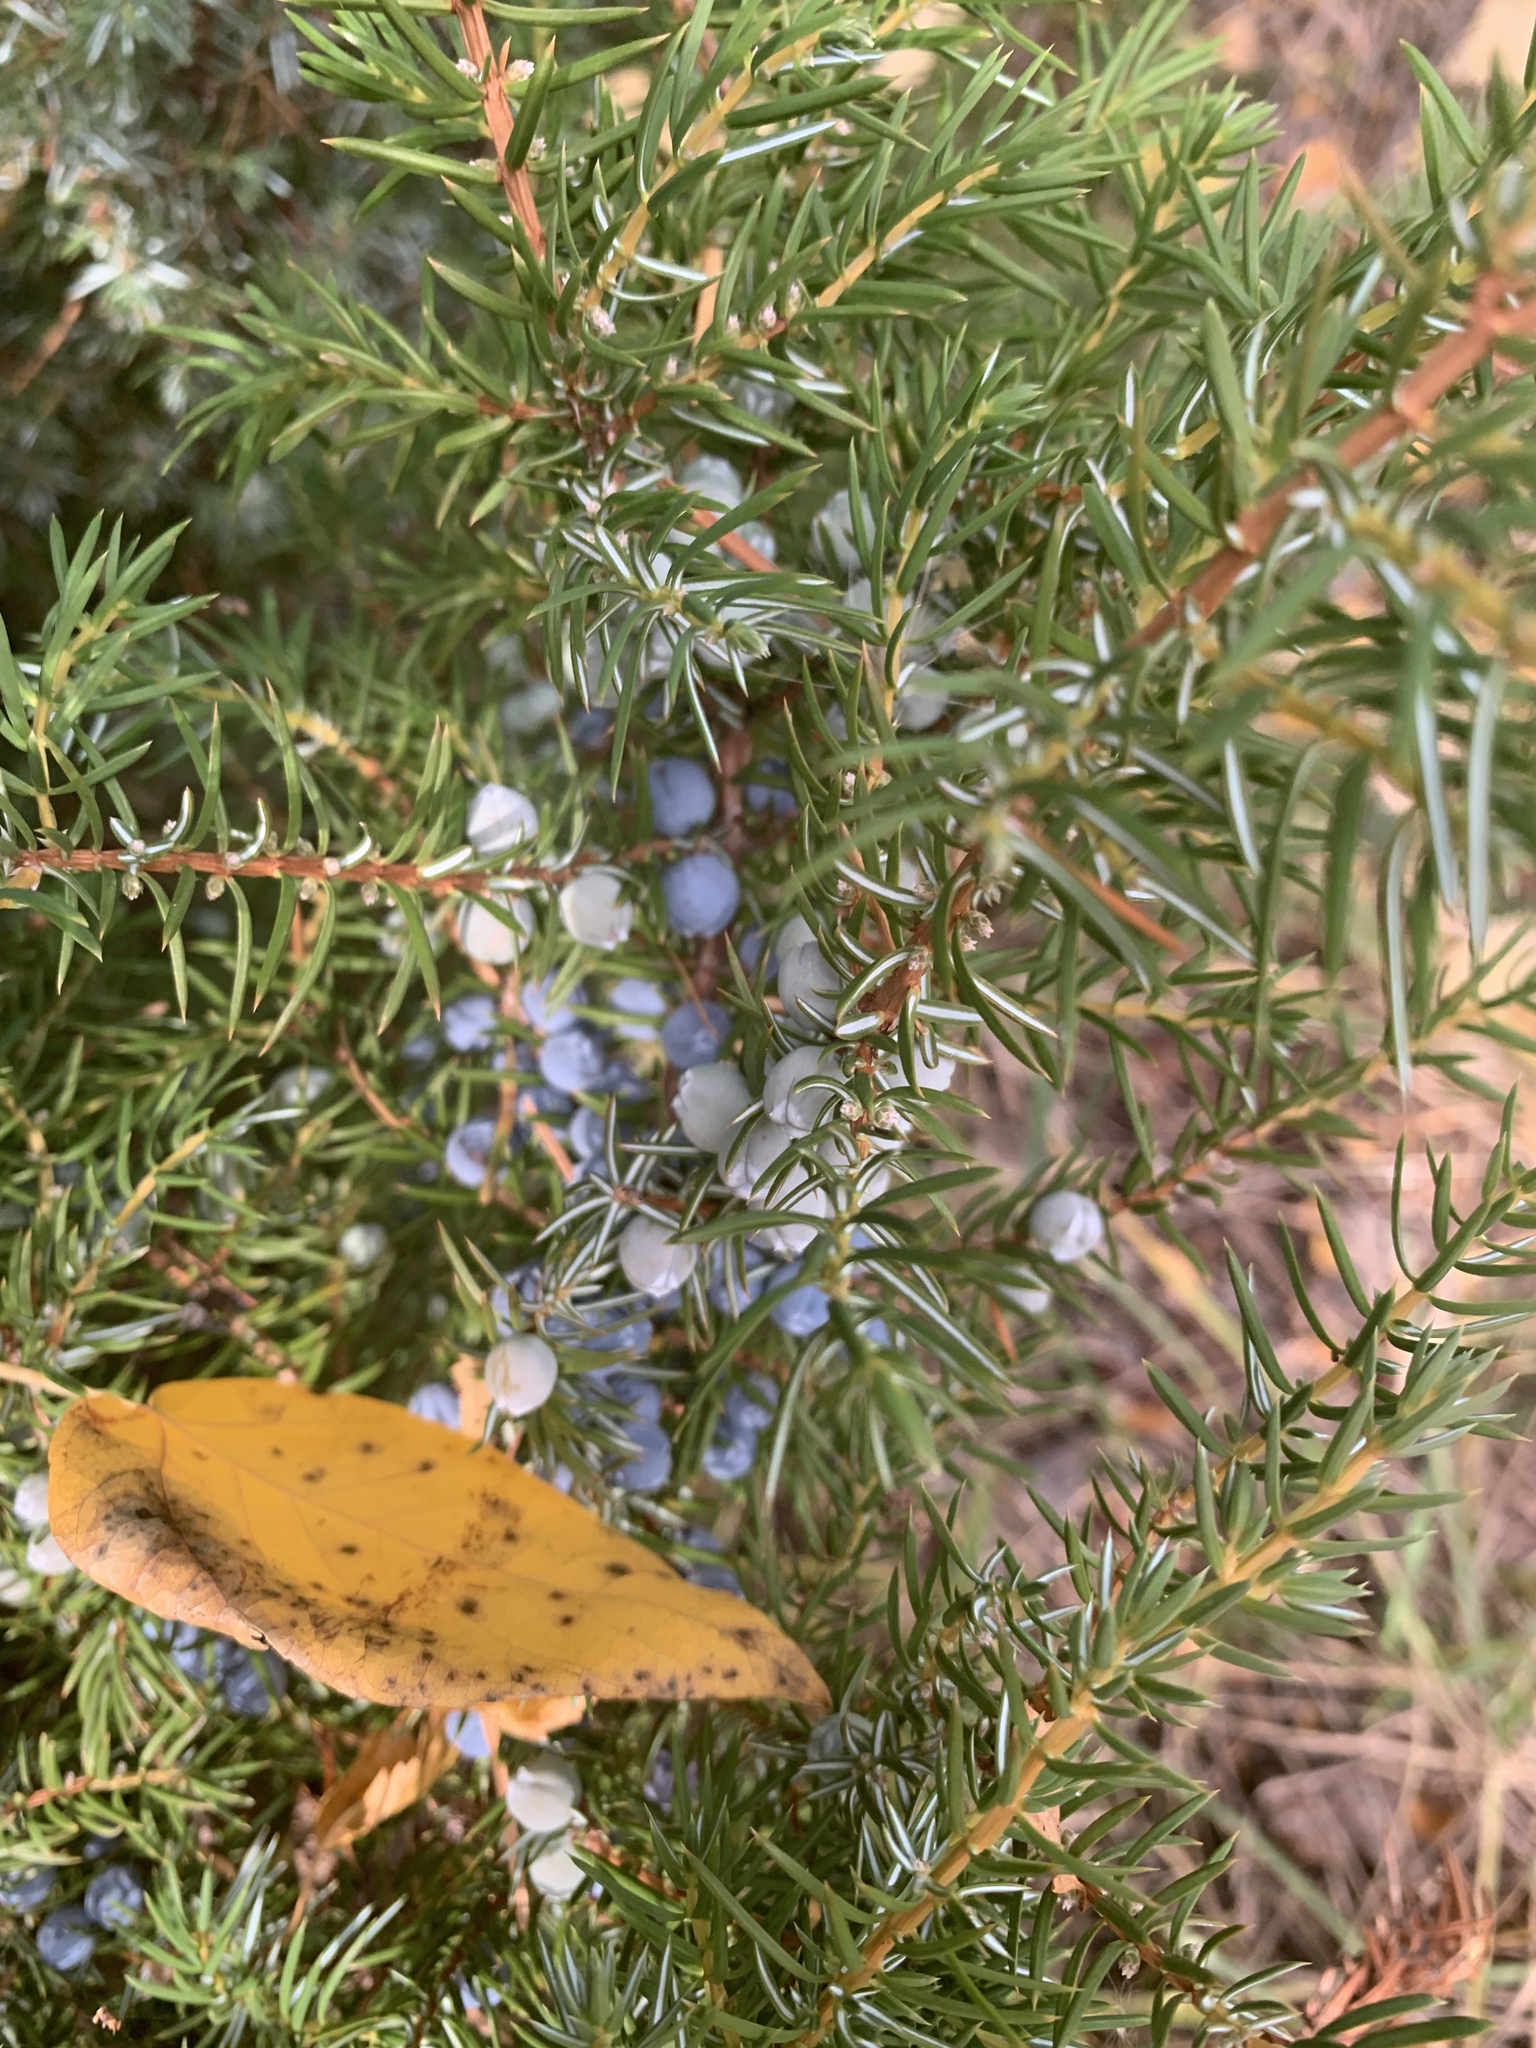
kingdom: Plantae
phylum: Tracheophyta
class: Pinopsida
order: Pinales
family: Cupressaceae
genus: Juniperus
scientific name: Juniperus communis
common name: Common juniper
